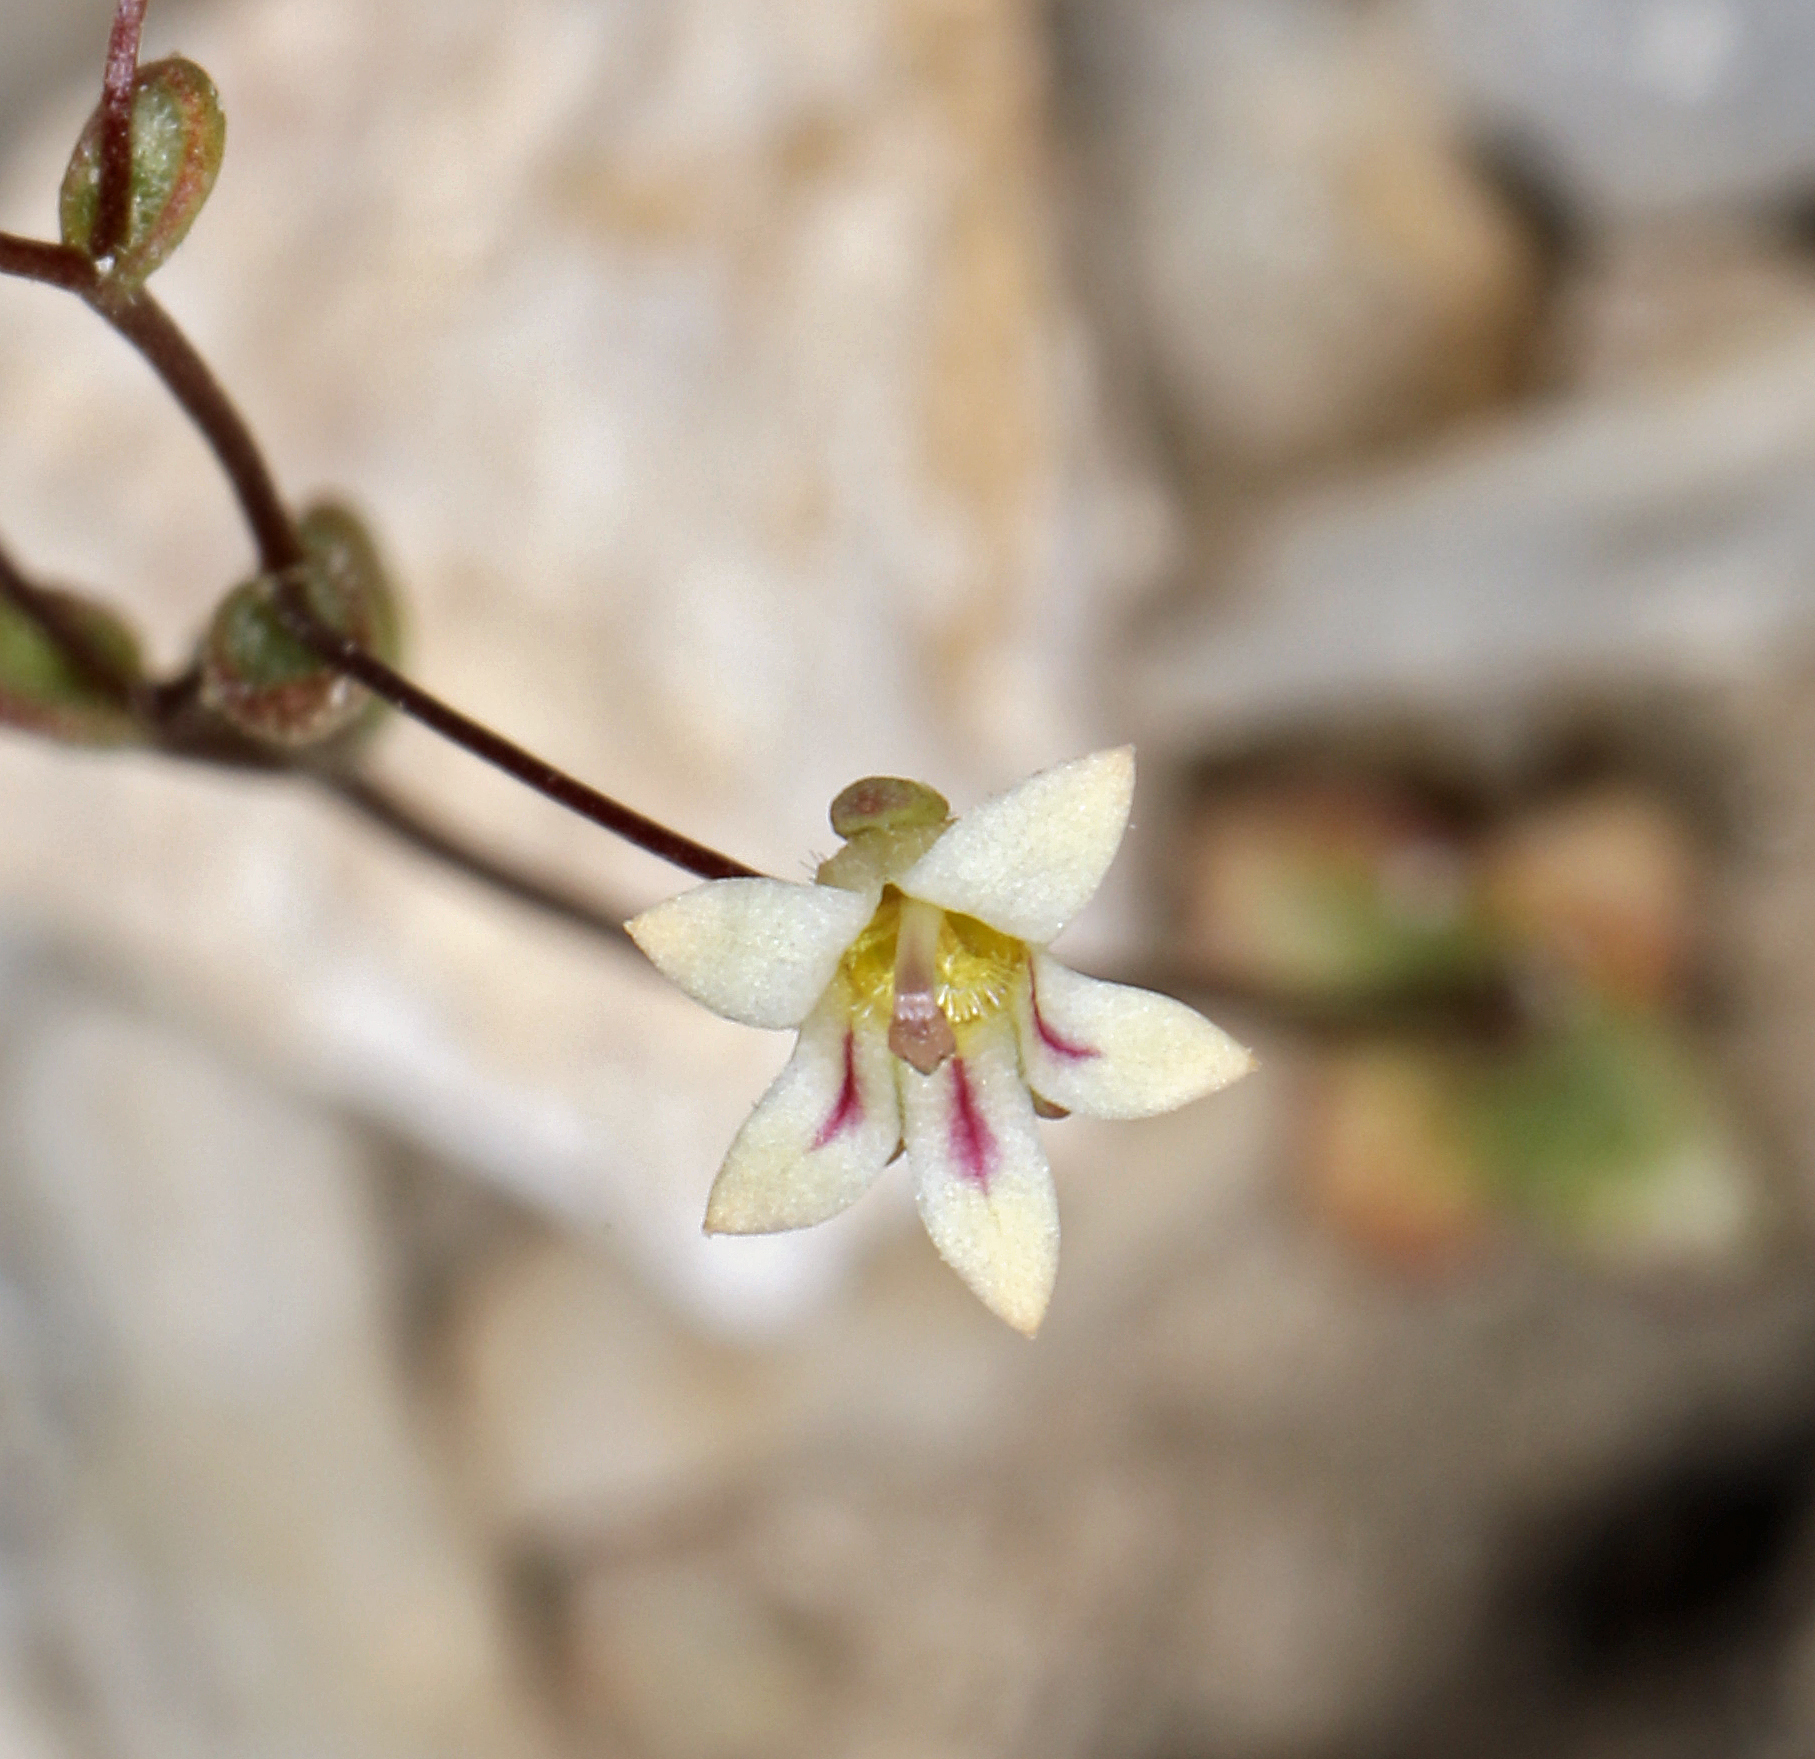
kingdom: Plantae
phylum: Tracheophyta
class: Magnoliopsida
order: Asterales
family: Campanulaceae
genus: Nemacladus
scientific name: Nemacladus inyoensis
